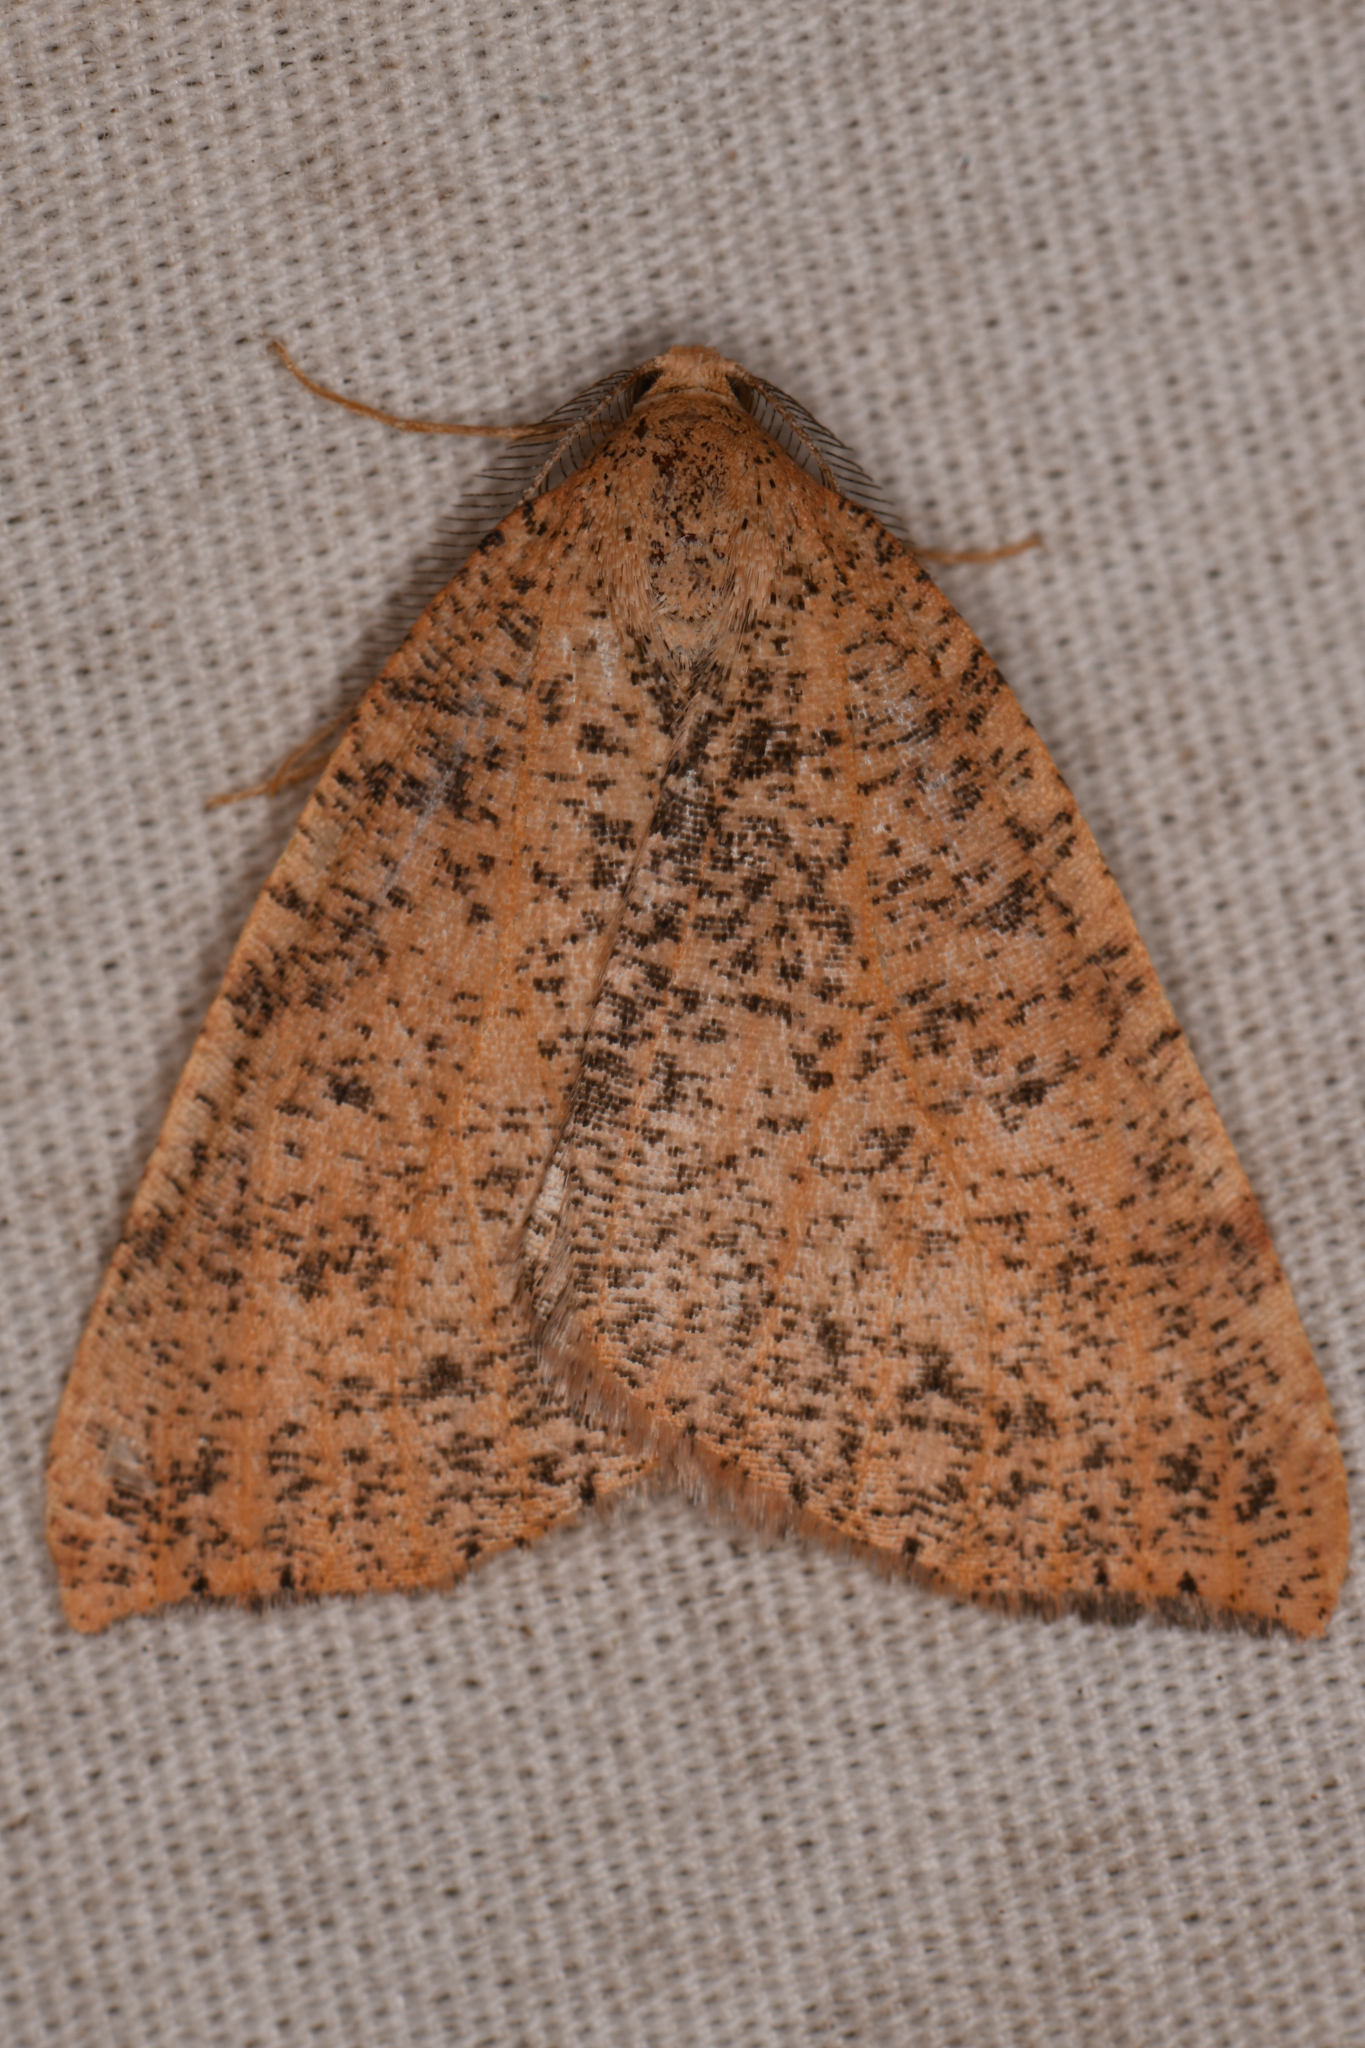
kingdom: Animalia
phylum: Arthropoda
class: Insecta
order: Lepidoptera
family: Geometridae
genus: Drepanulatrix
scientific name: Drepanulatrix falcataria
